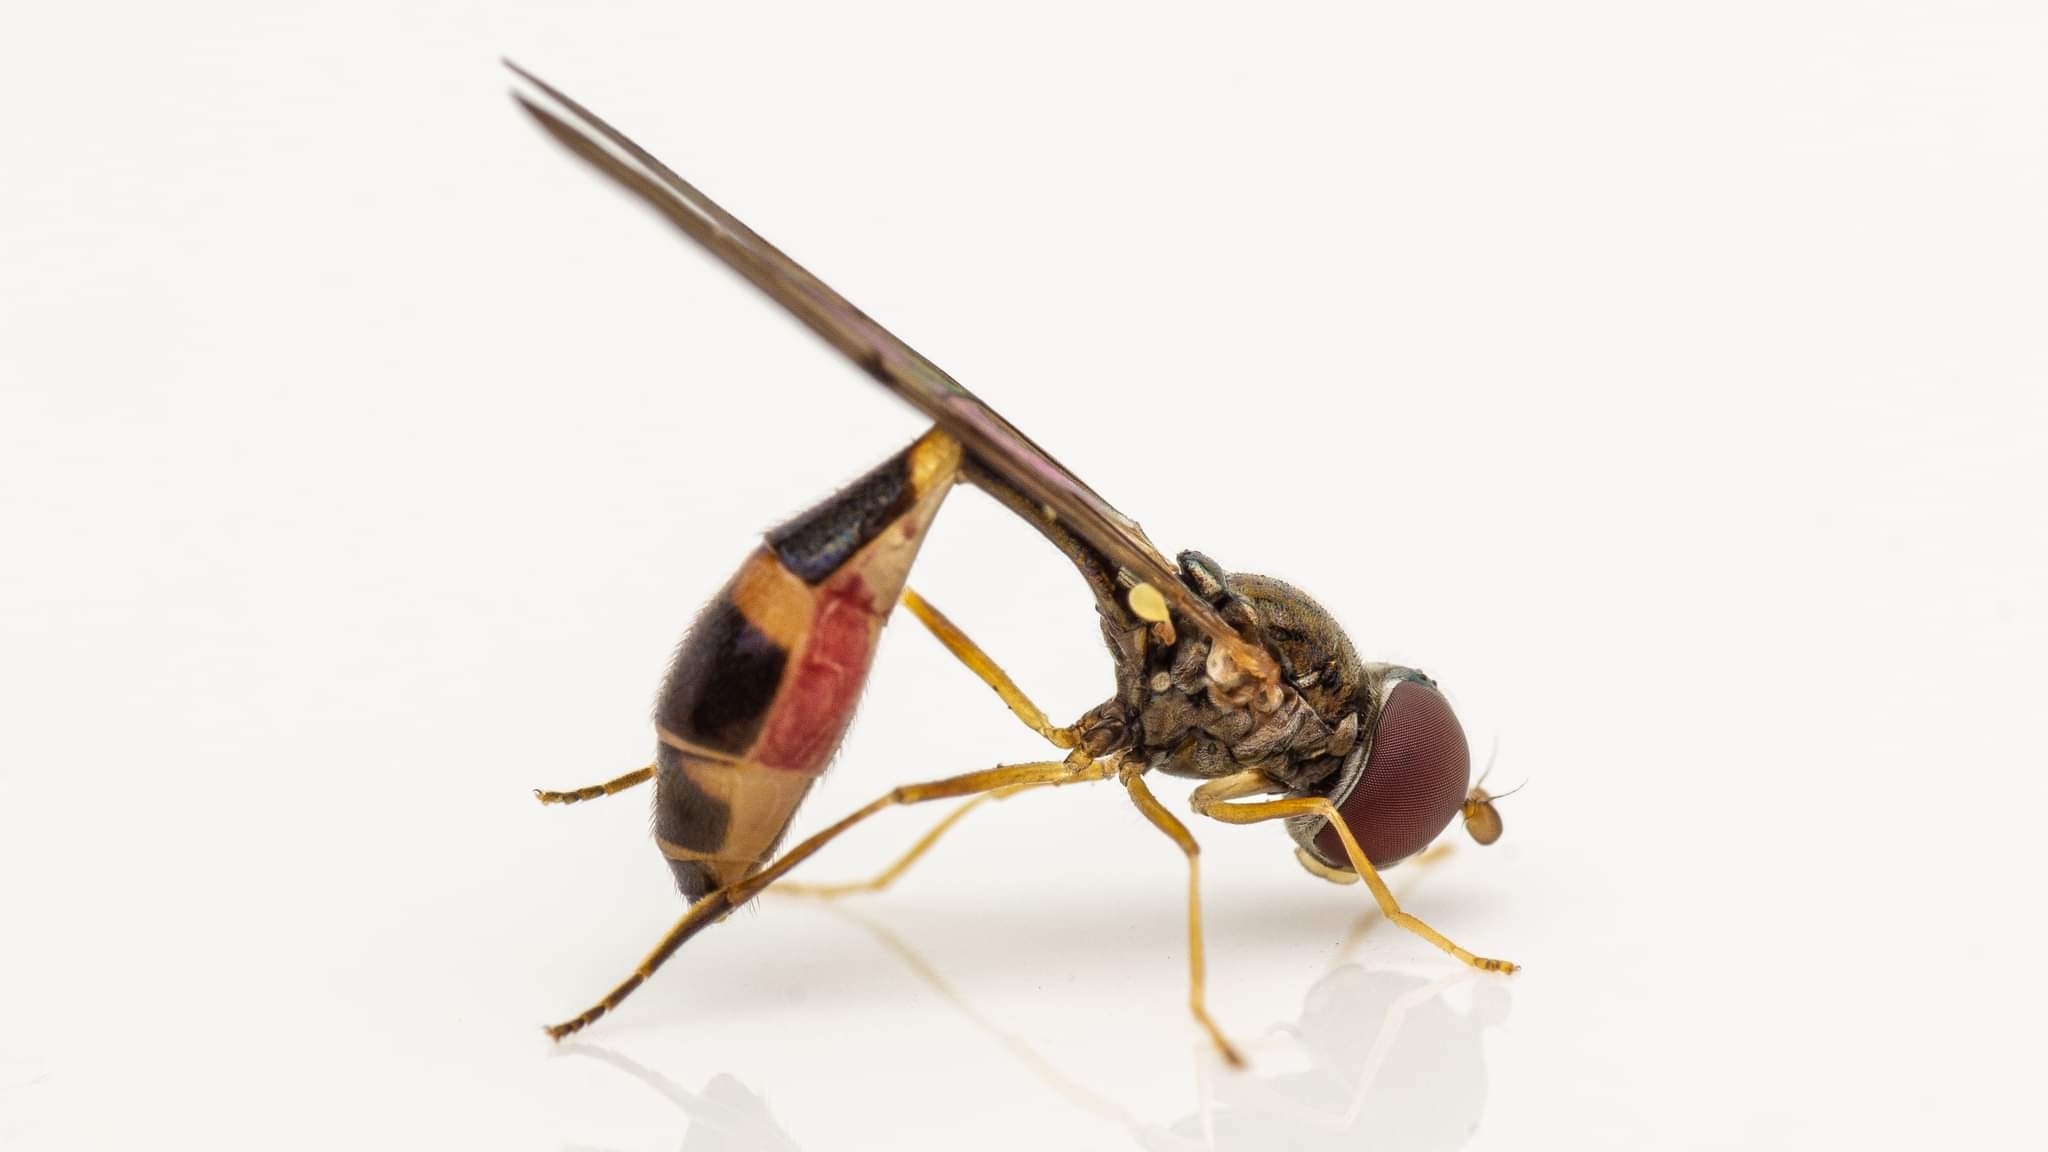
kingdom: Animalia
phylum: Arthropoda
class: Insecta
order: Diptera
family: Syrphidae
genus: Baccha
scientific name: Baccha elongata
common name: Common dainty
